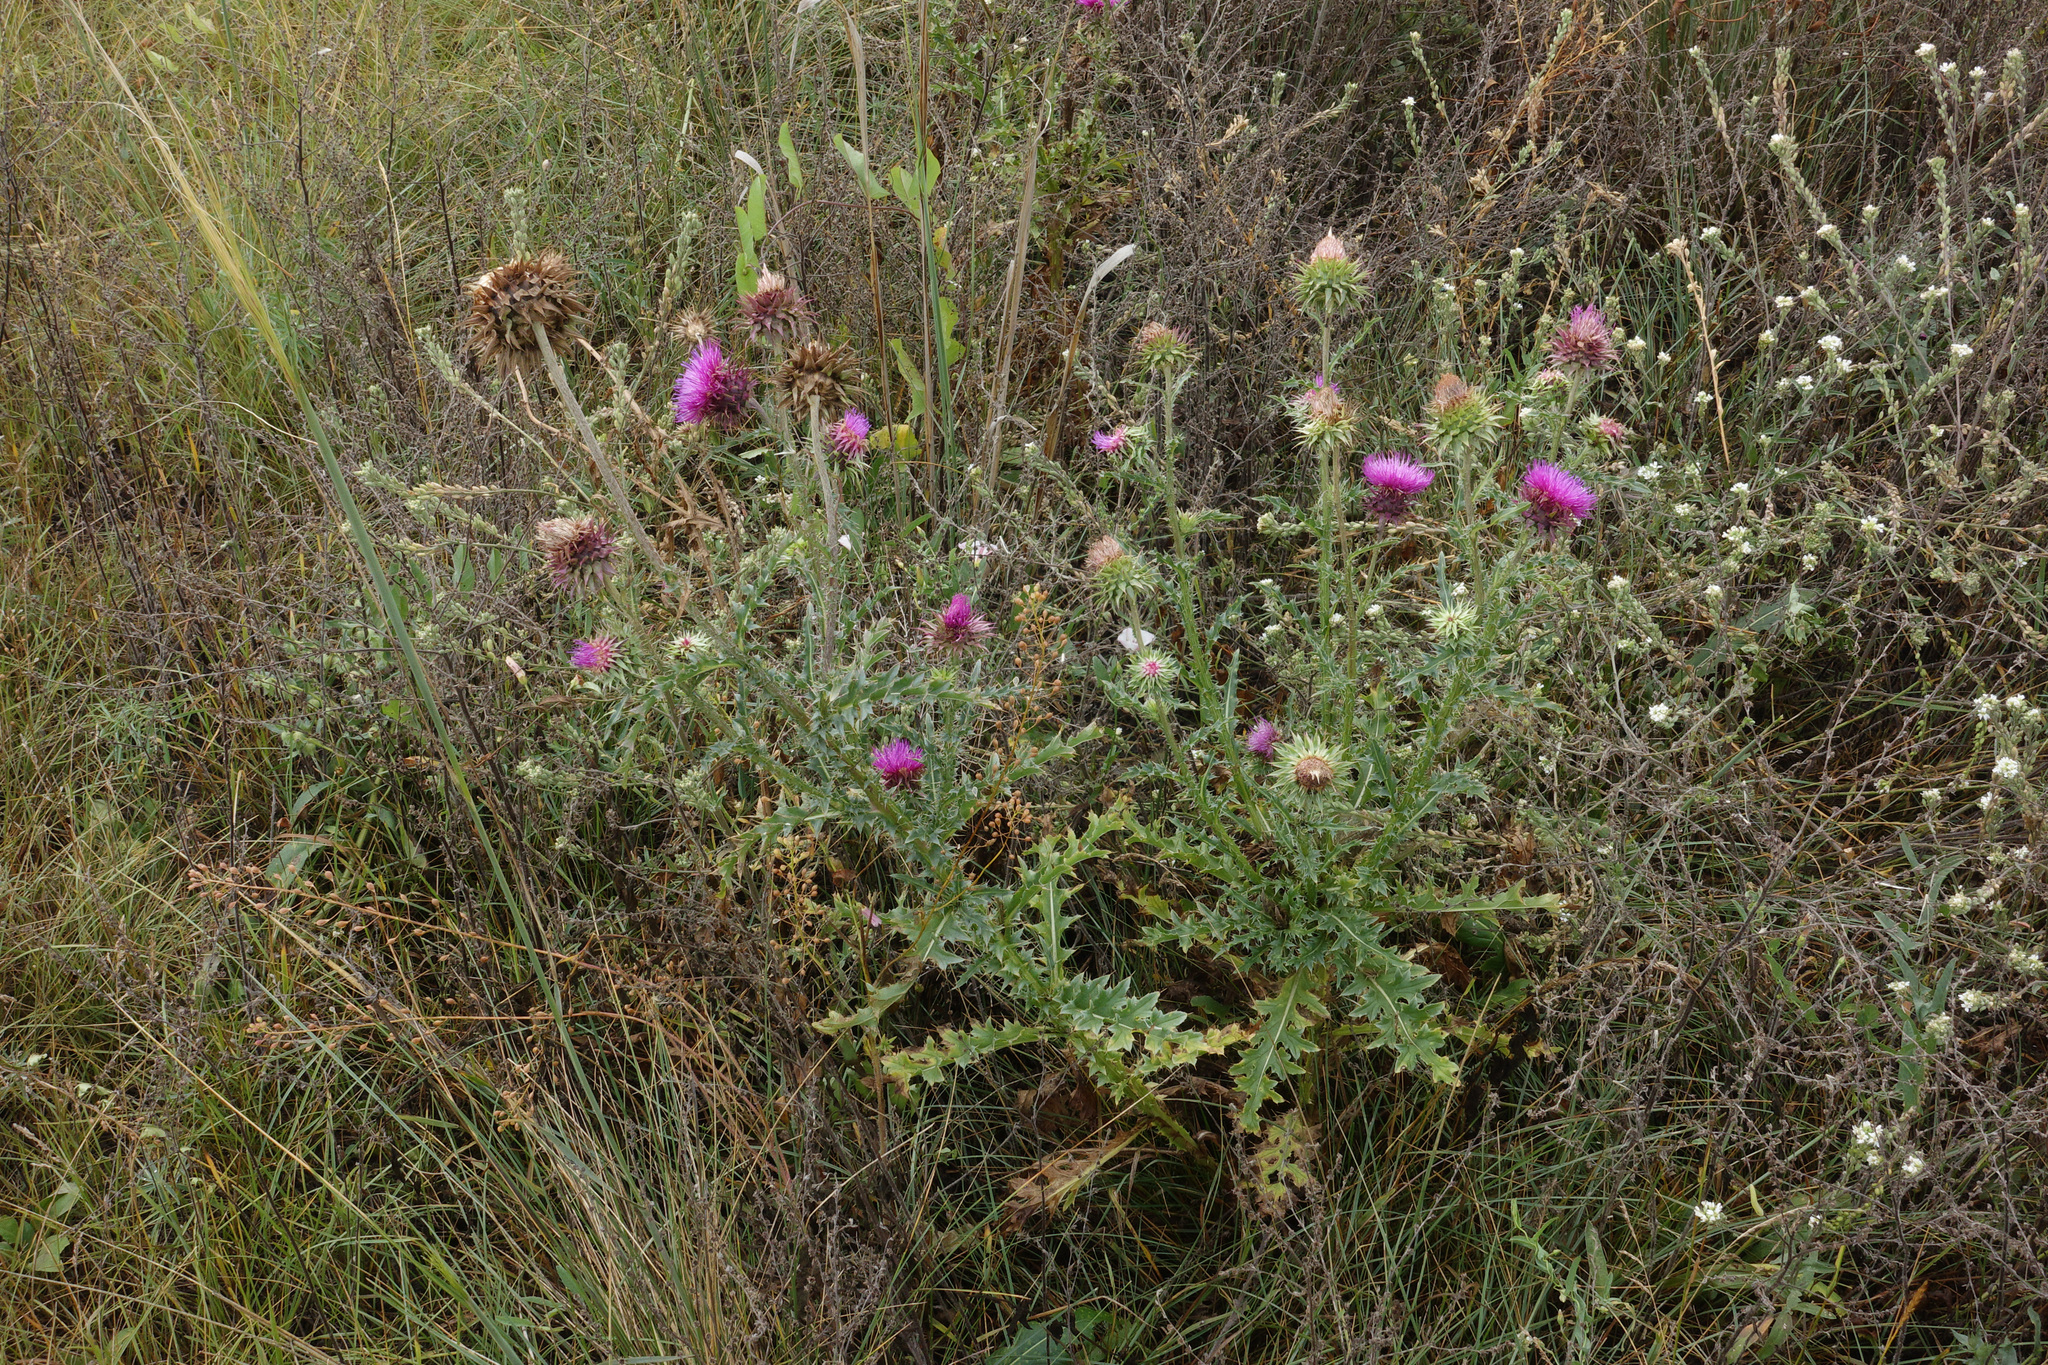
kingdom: Plantae
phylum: Tracheophyta
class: Magnoliopsida
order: Asterales
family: Asteraceae
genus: Carduus
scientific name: Carduus nutans
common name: Musk thistle
